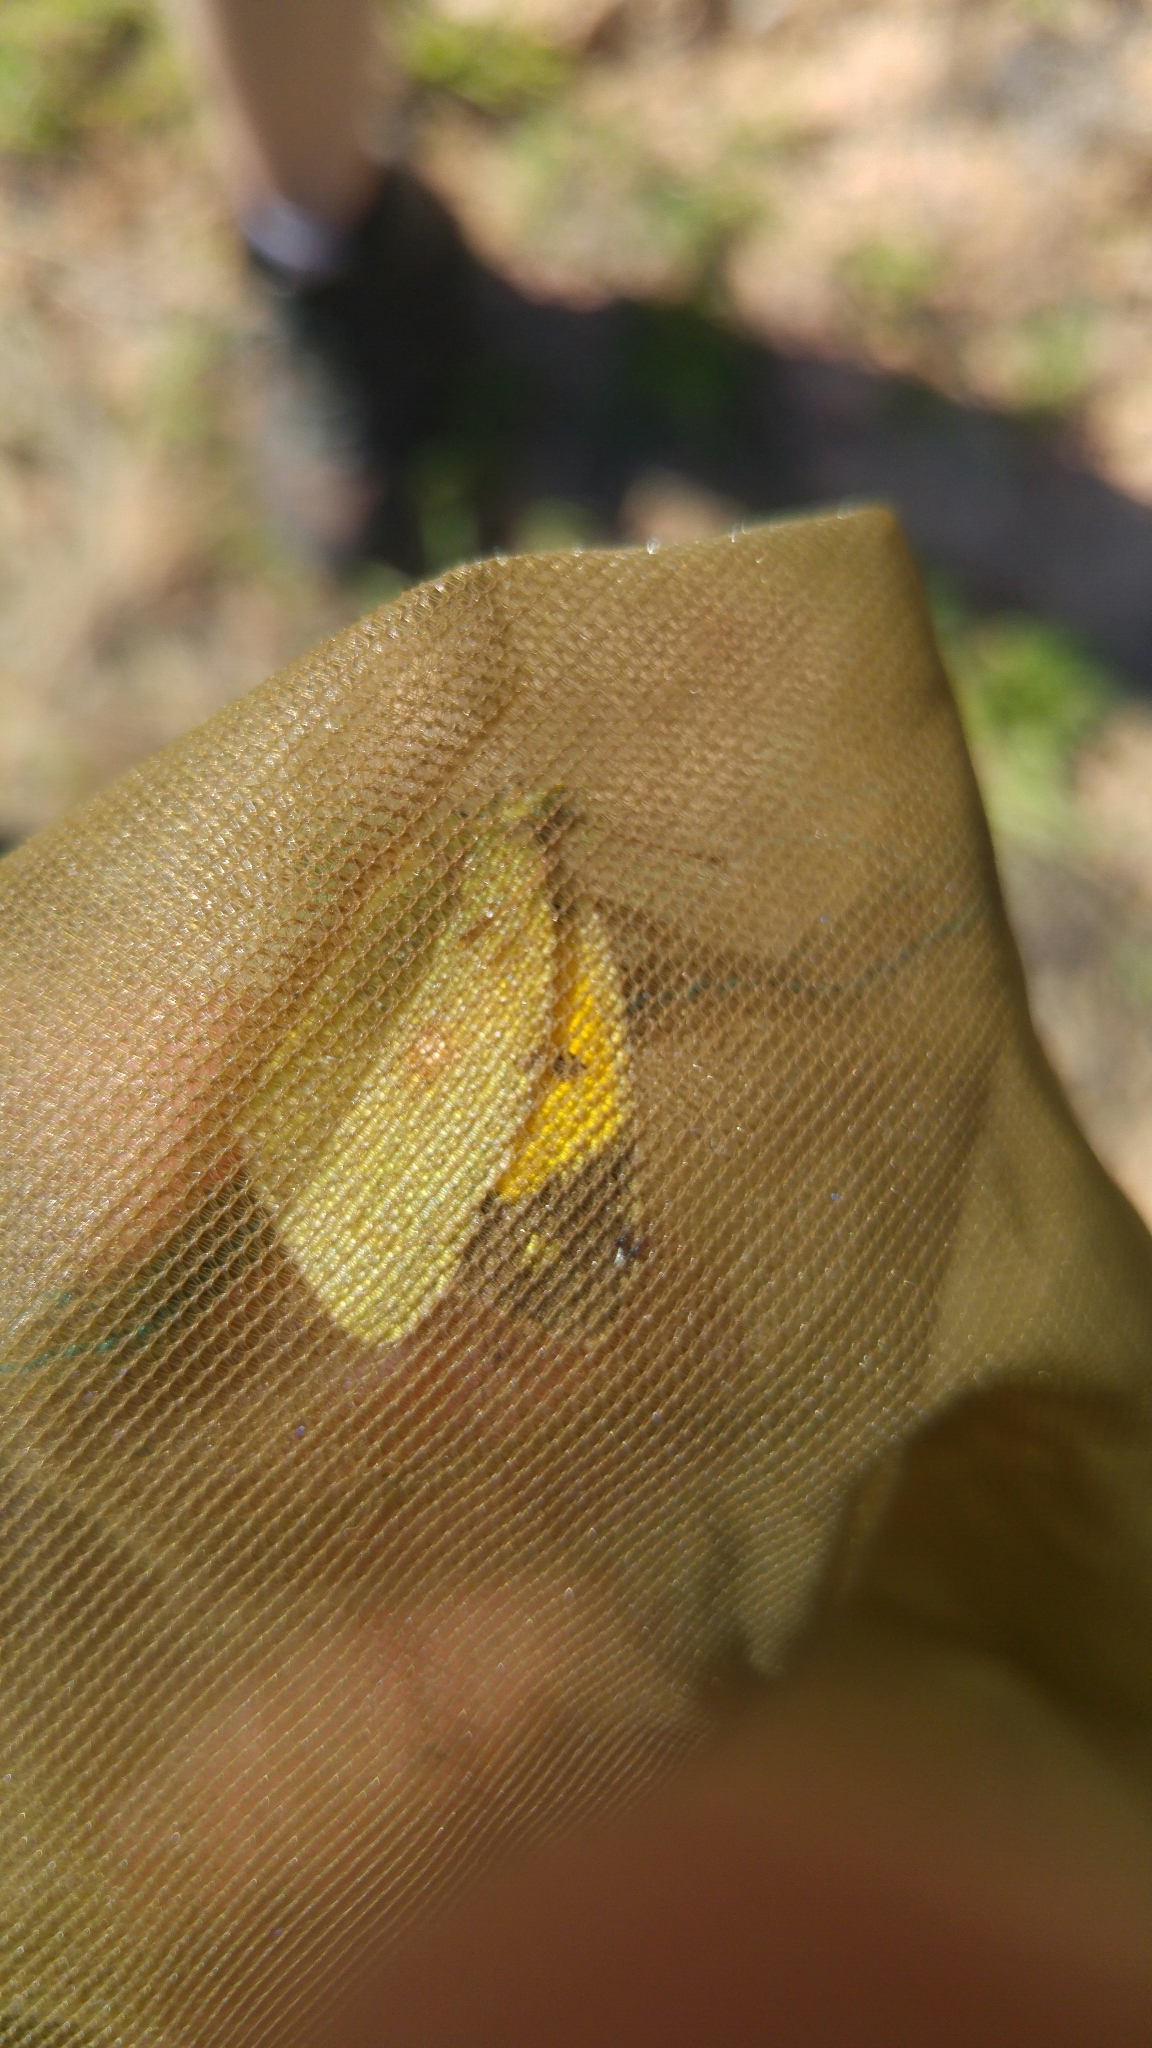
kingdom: Animalia
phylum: Arthropoda
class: Insecta
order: Lepidoptera
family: Pieridae
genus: Colias
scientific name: Colias croceus
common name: Clouded yellow
